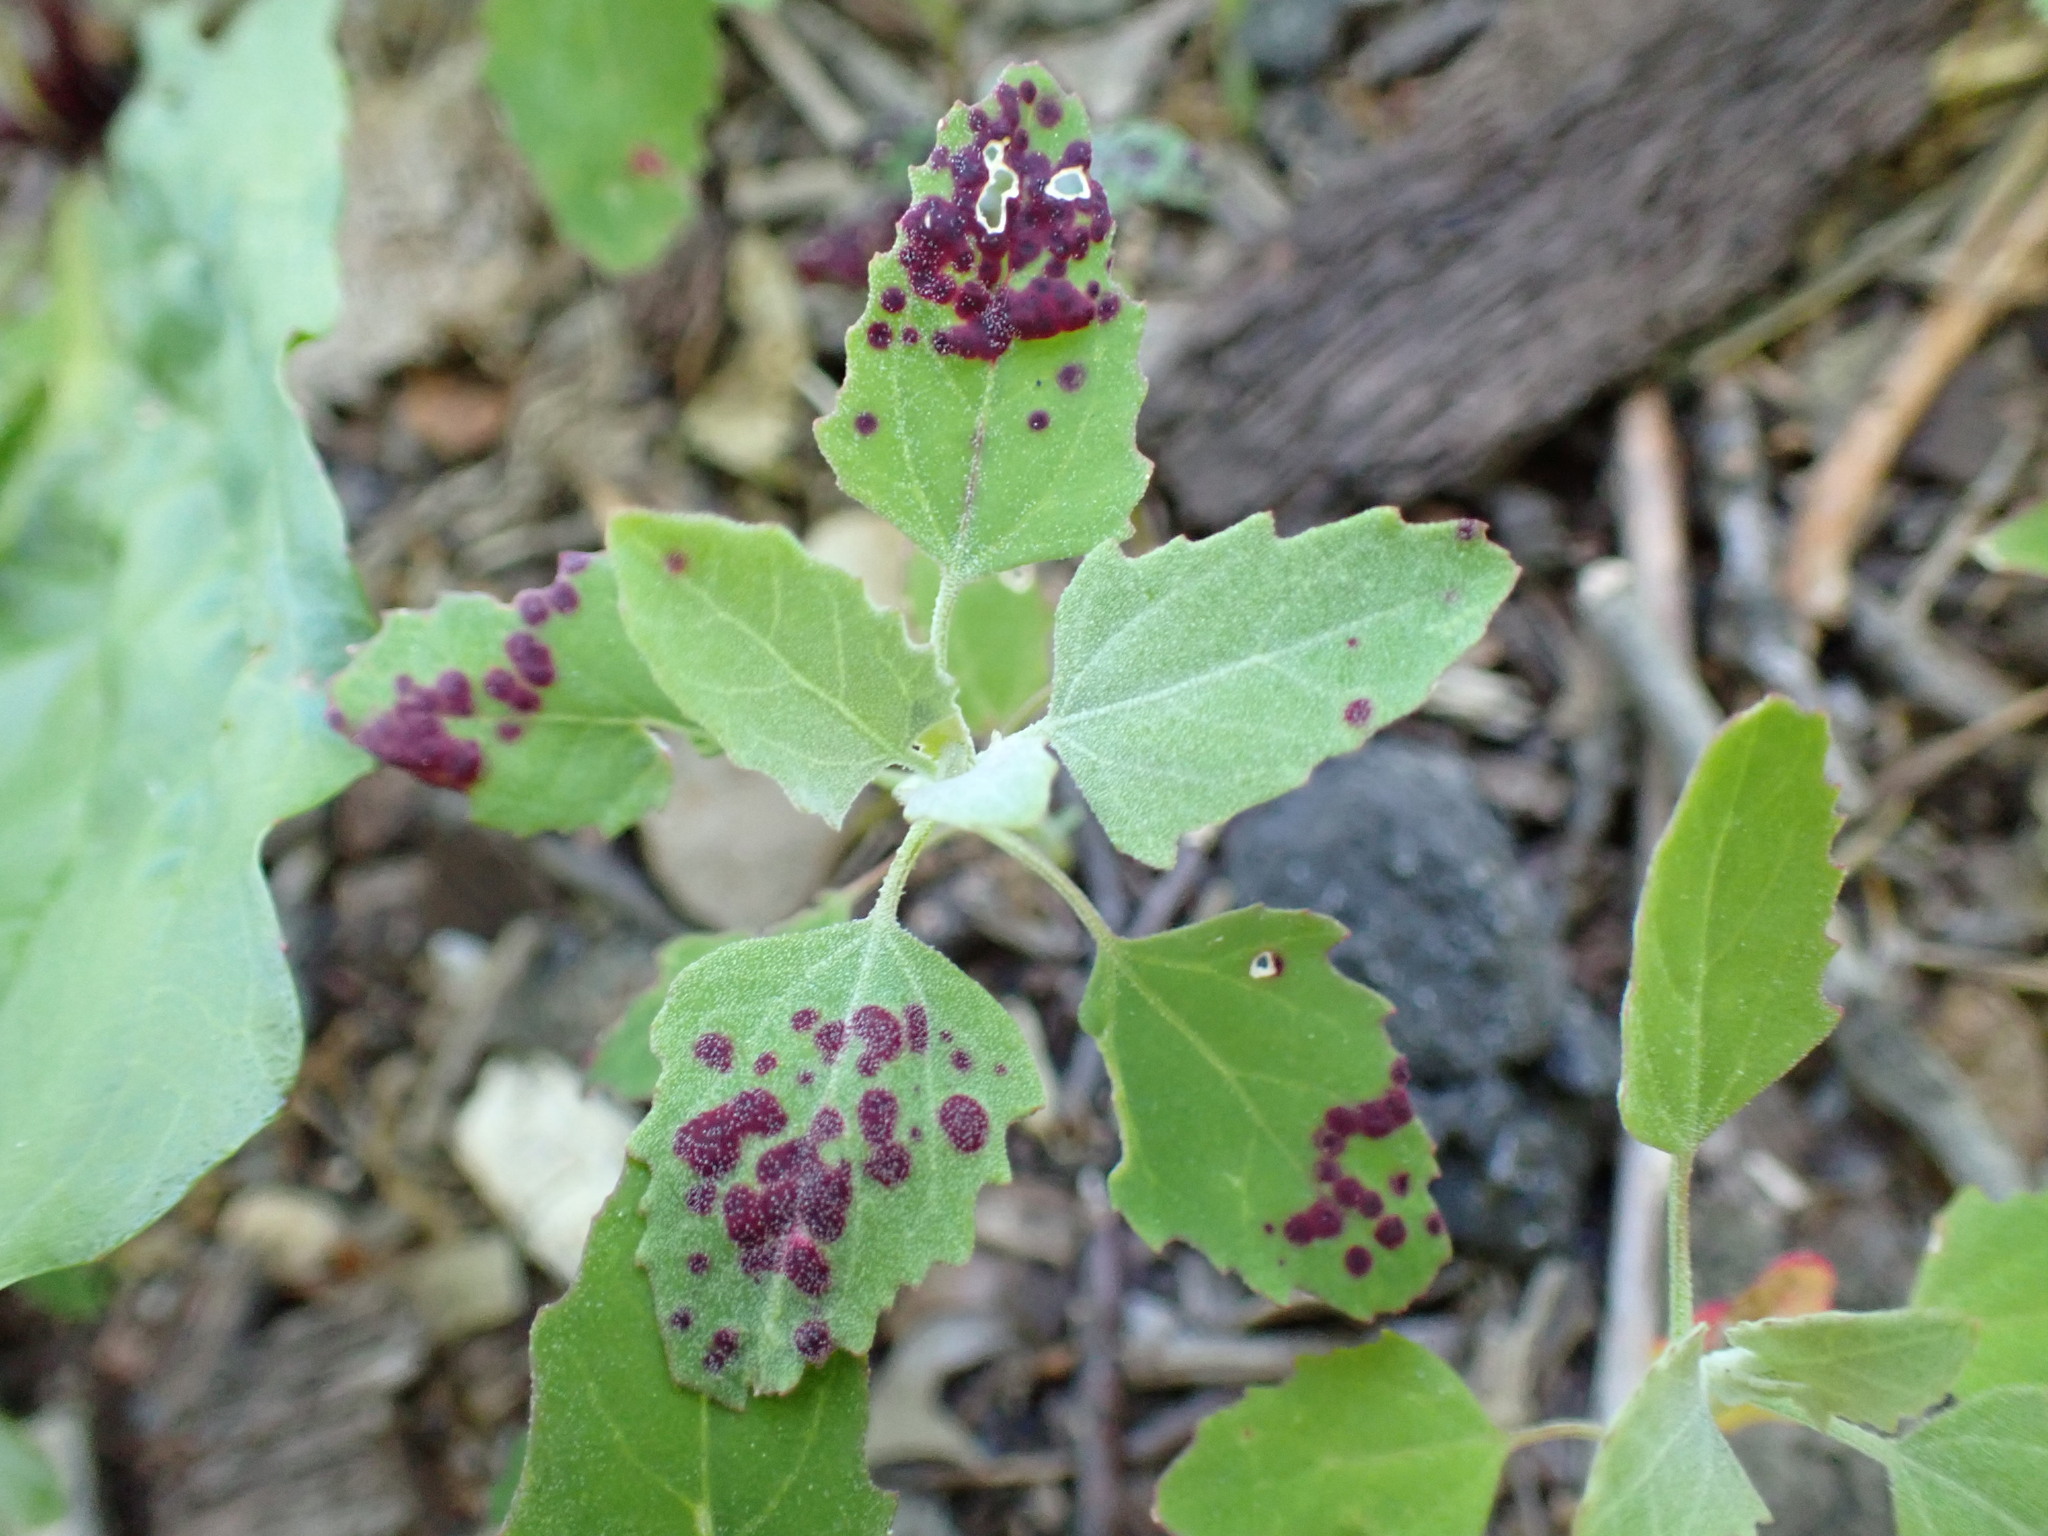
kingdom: Plantae
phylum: Tracheophyta
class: Magnoliopsida
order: Caryophyllales
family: Amaranthaceae
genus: Chenopodium
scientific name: Chenopodium album
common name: Fat-hen
